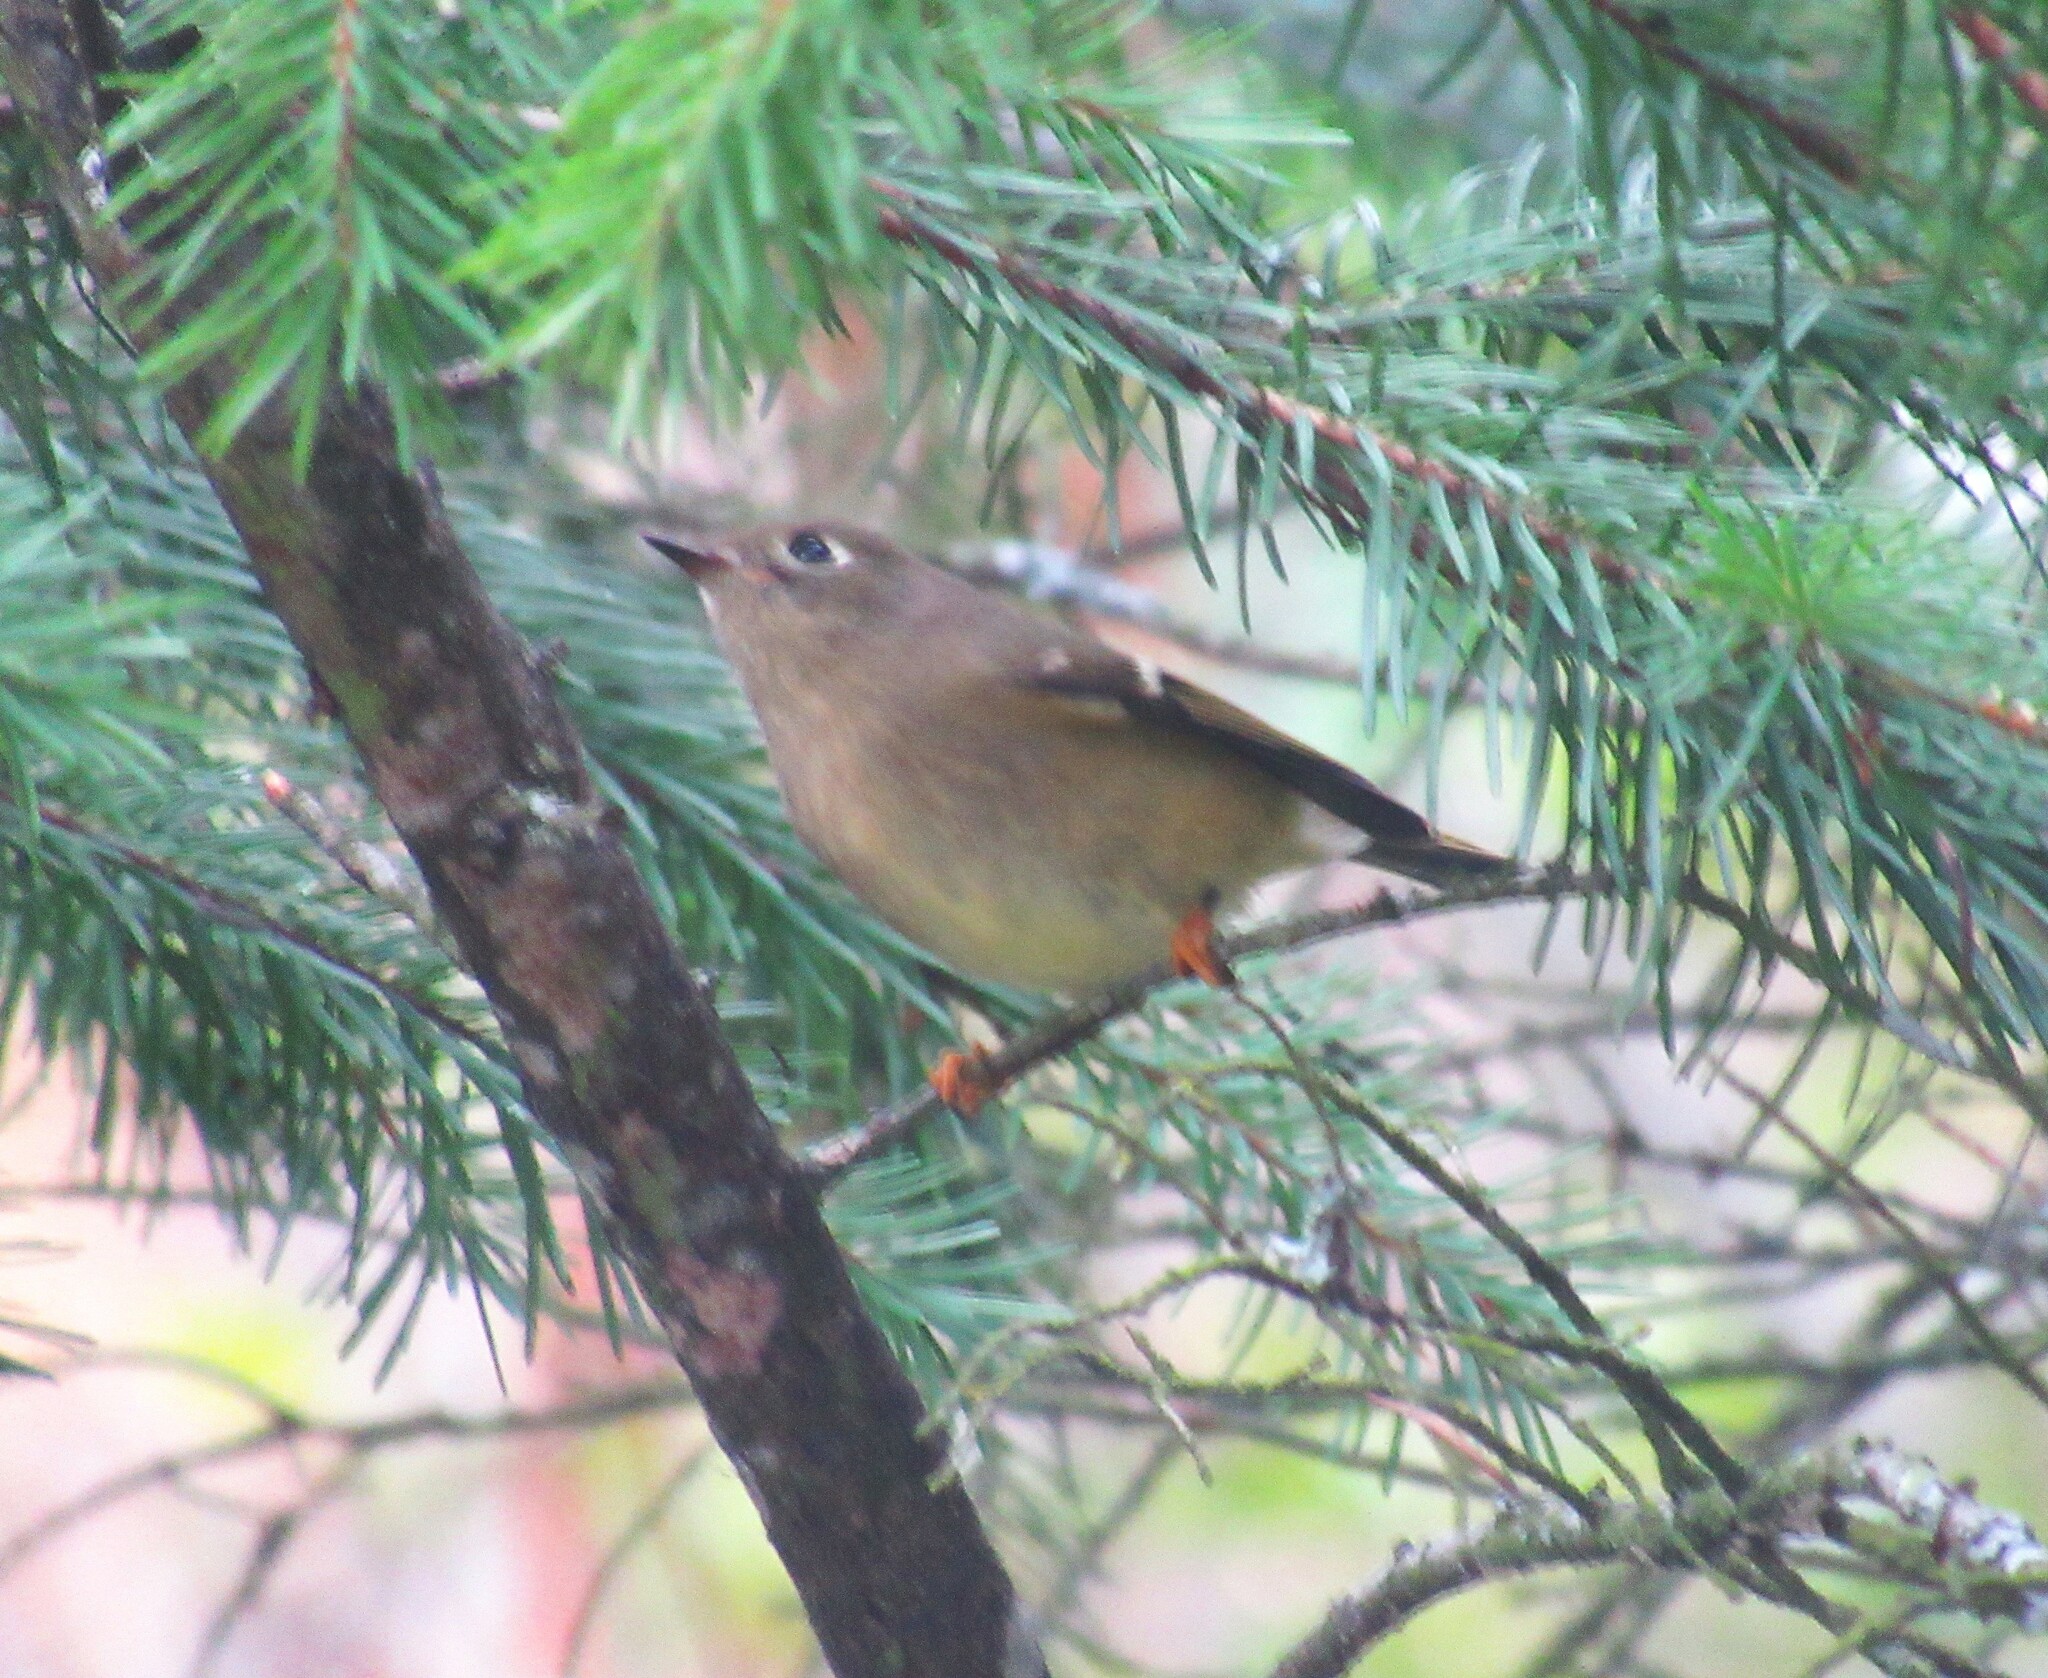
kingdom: Animalia
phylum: Chordata
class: Aves
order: Passeriformes
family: Regulidae
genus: Regulus
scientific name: Regulus calendula
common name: Ruby-crowned kinglet
